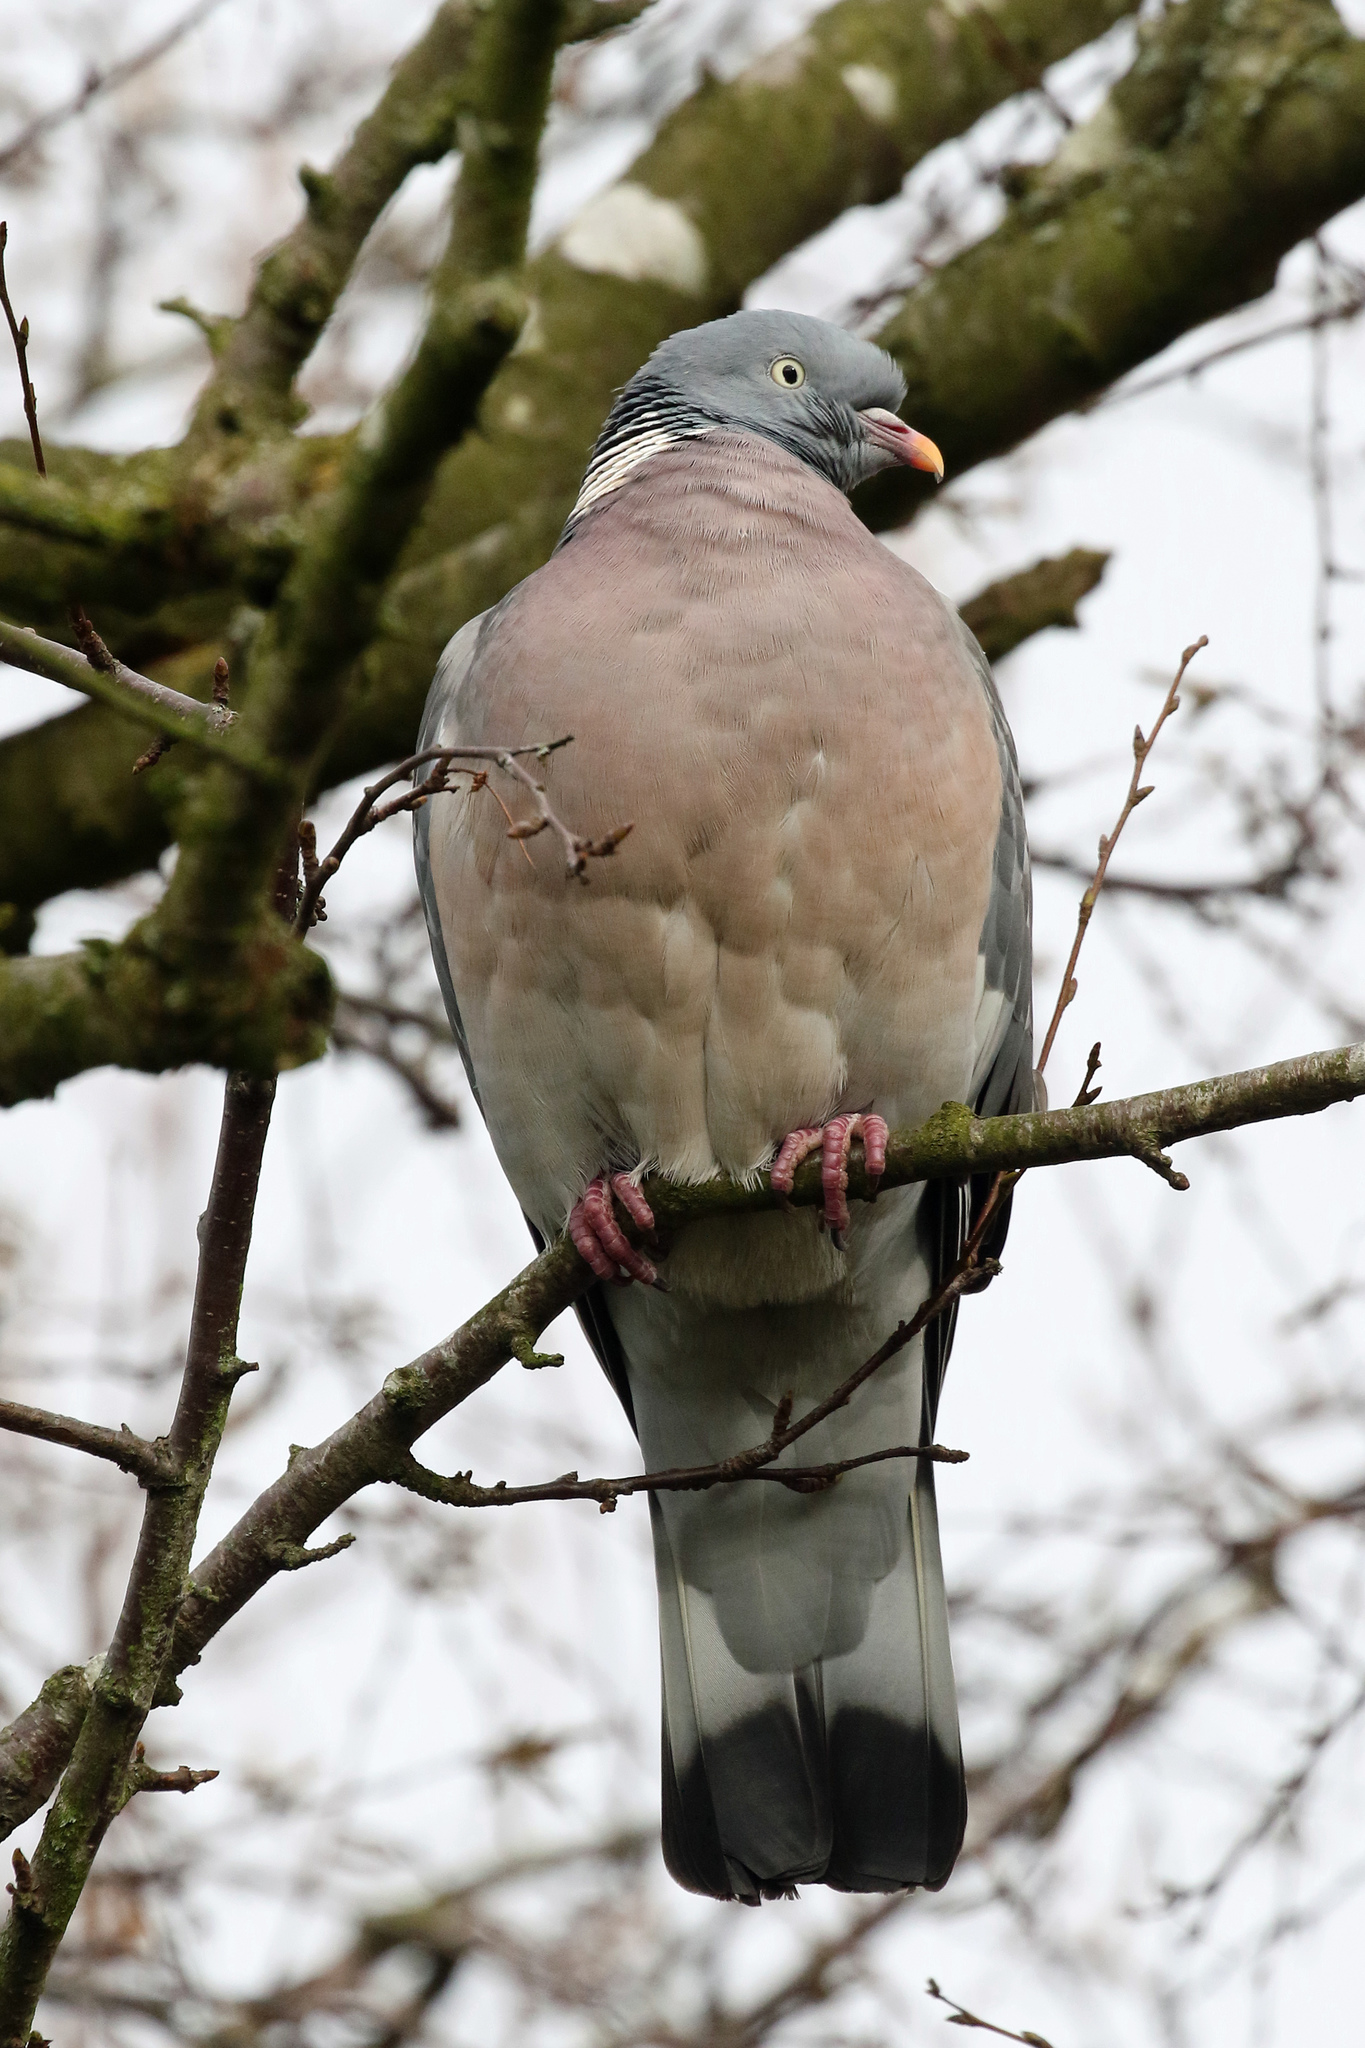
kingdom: Animalia
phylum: Chordata
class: Aves
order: Columbiformes
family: Columbidae
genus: Columba
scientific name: Columba palumbus
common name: Common wood pigeon
